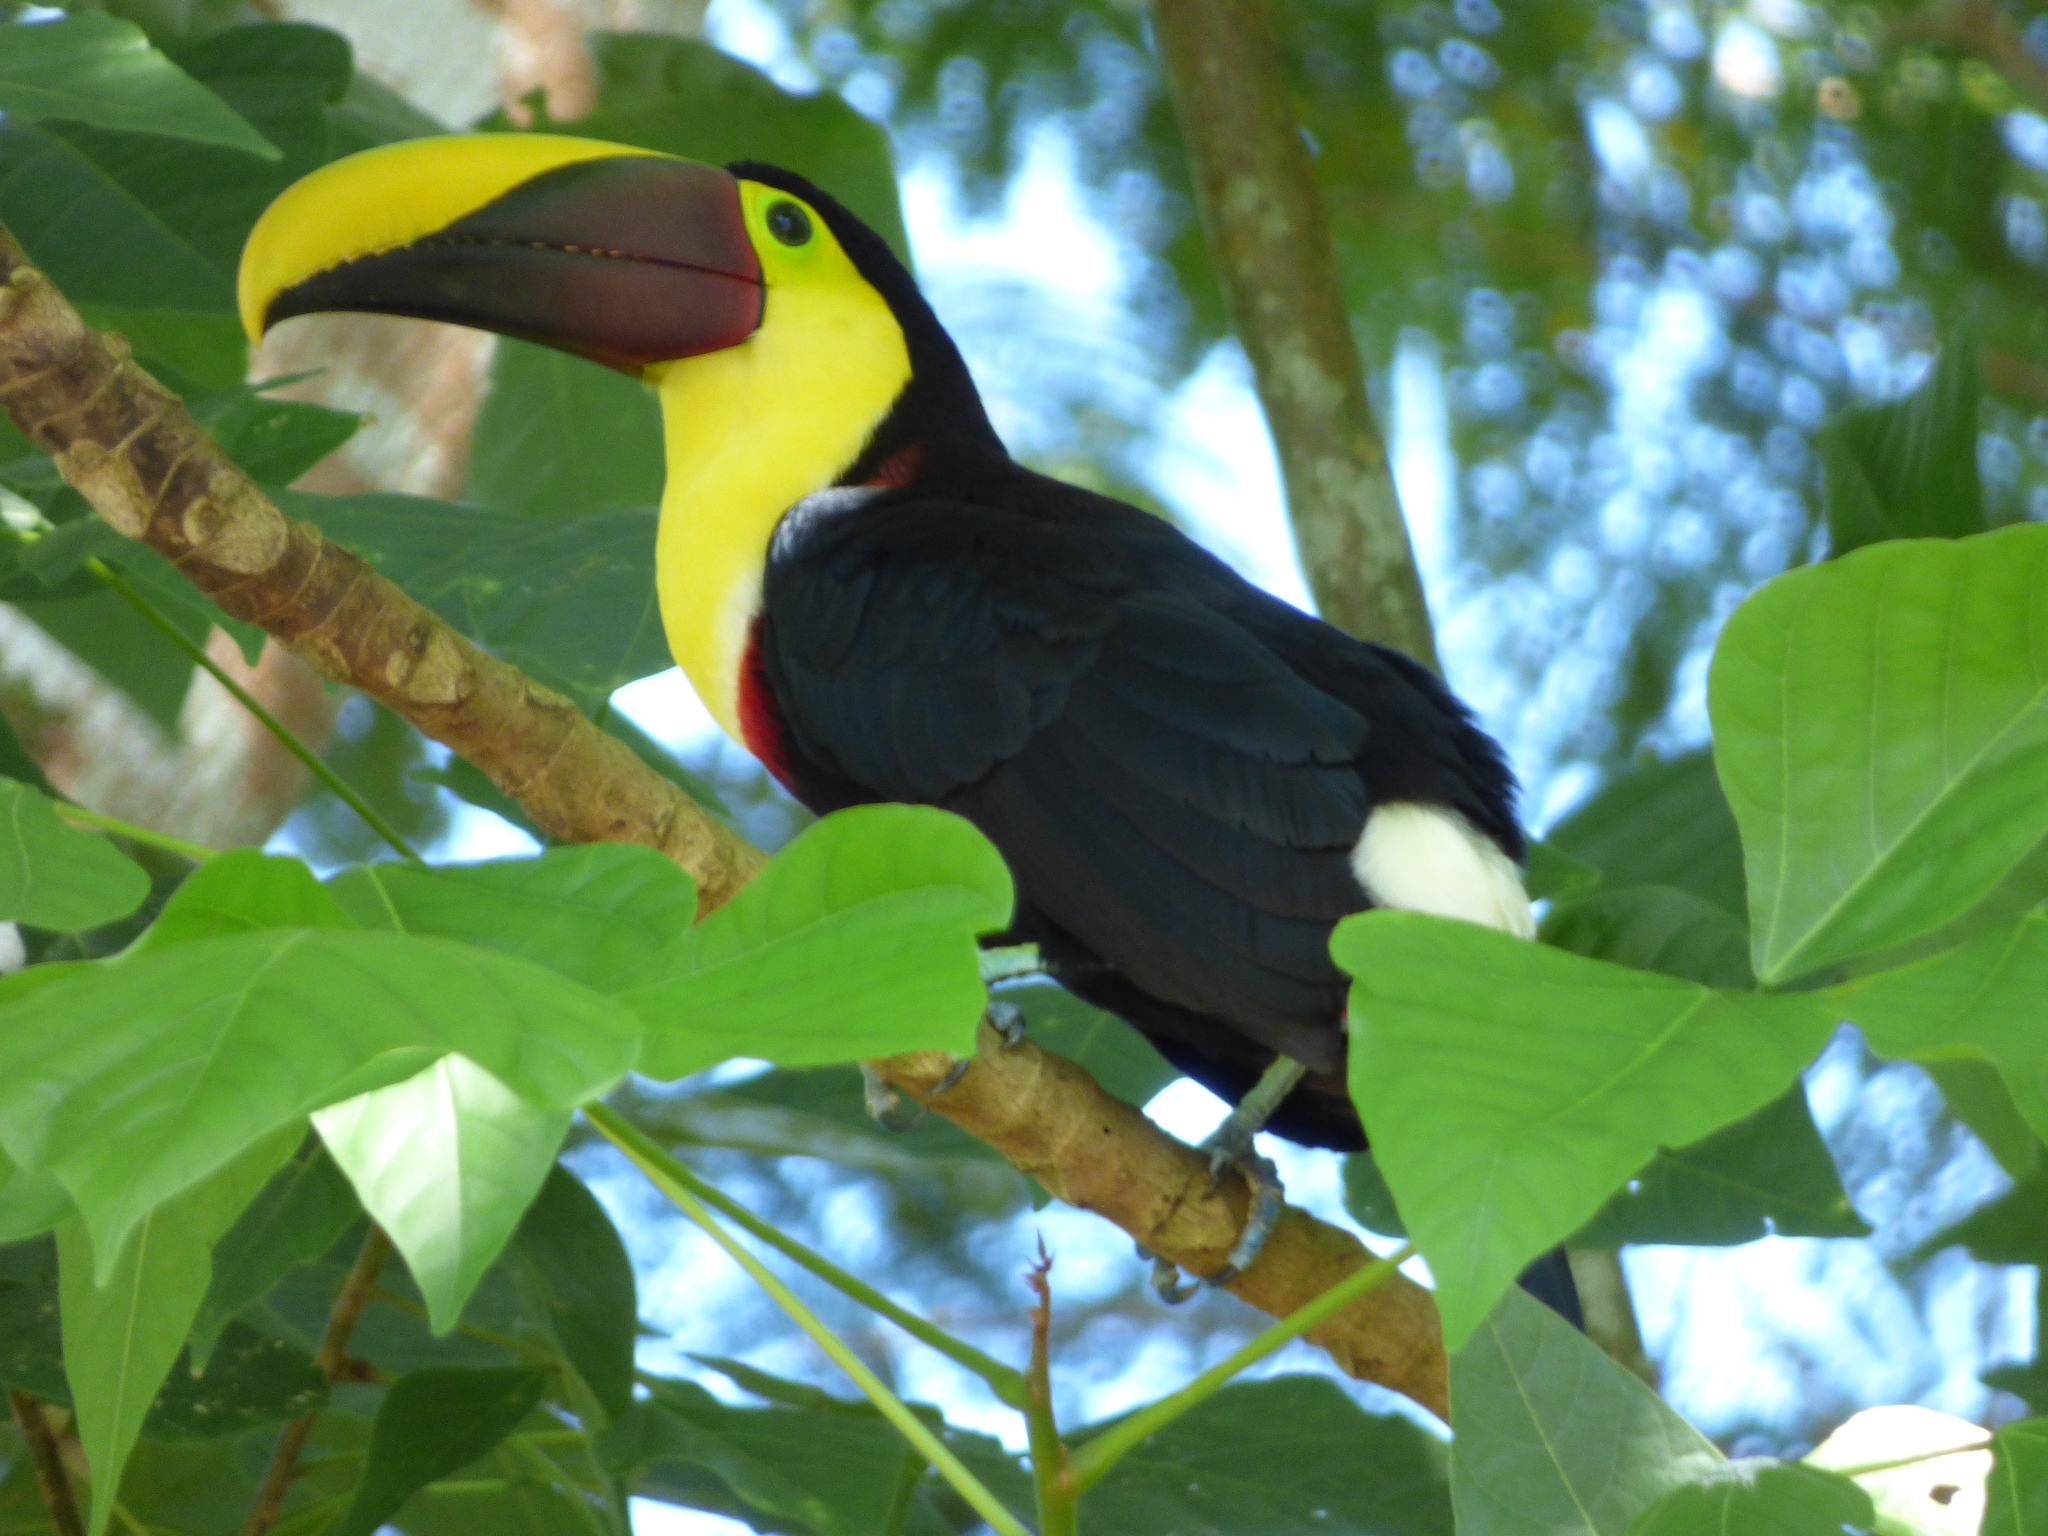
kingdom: Animalia
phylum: Chordata
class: Aves
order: Piciformes
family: Ramphastidae
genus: Ramphastos
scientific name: Ramphastos ambiguus
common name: Yellow-throated toucan
